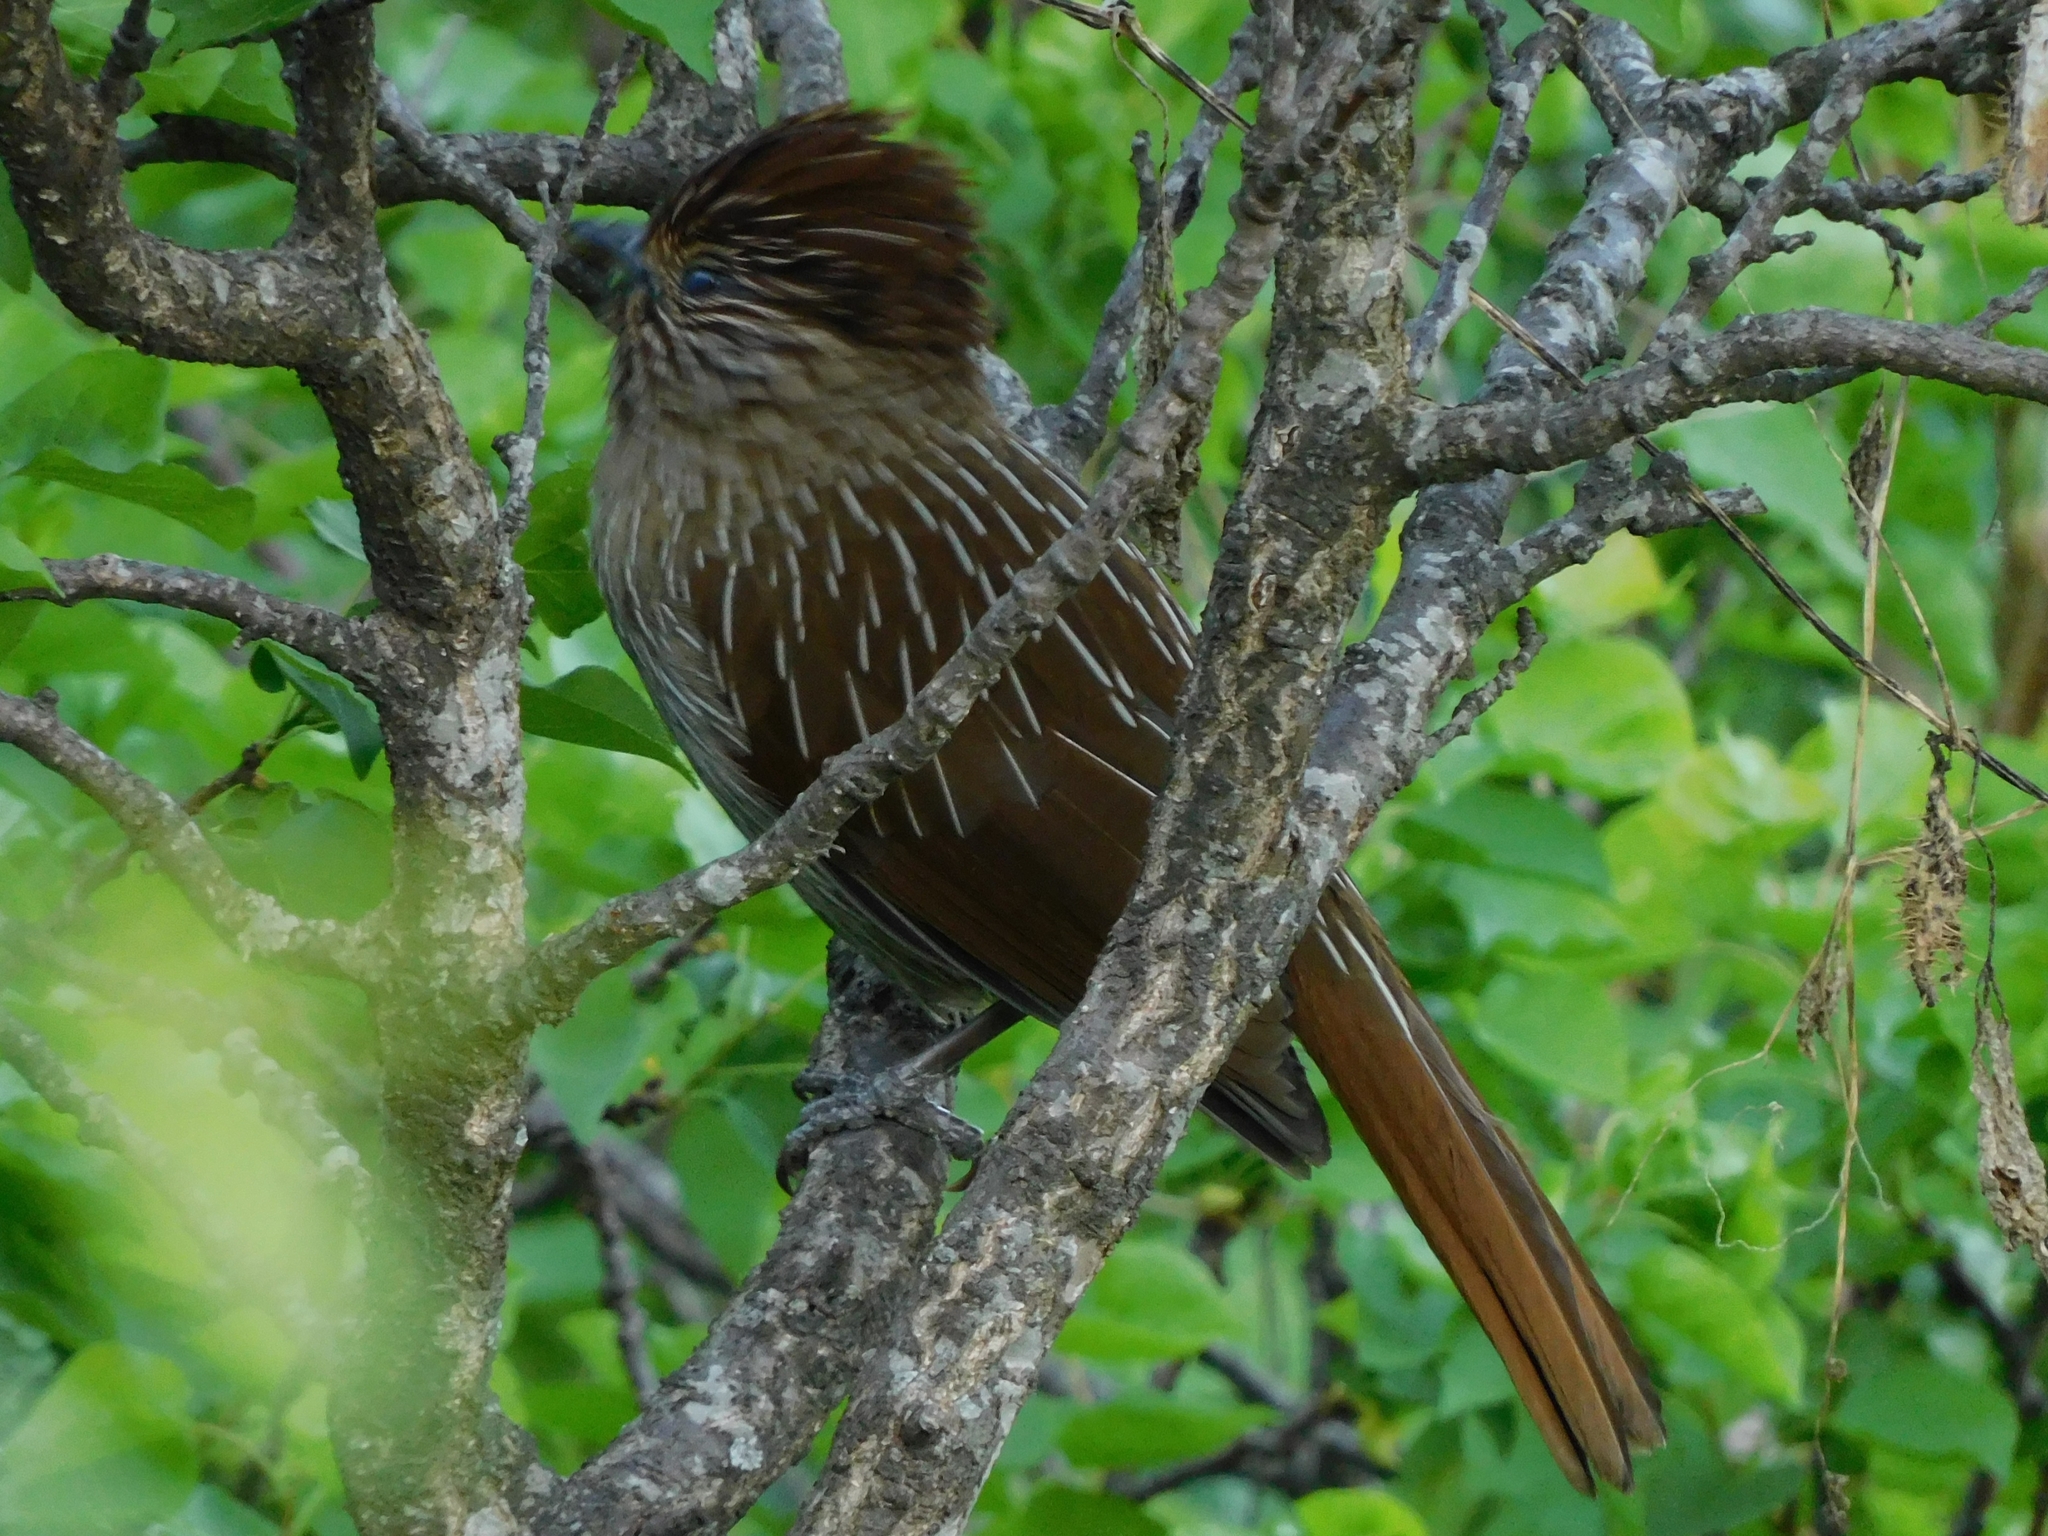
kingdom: Animalia
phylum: Chordata
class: Aves
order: Passeriformes
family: Leiothrichidae
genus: Garrulax
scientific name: Garrulax striatus
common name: Striated laughingthrush
